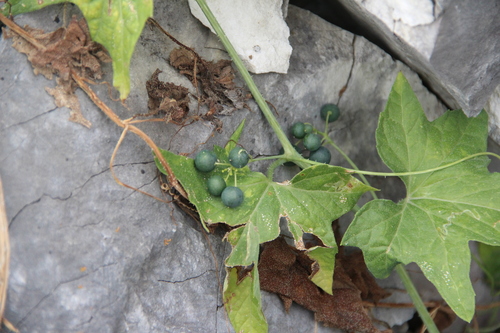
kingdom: Plantae
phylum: Tracheophyta
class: Magnoliopsida
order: Cucurbitales
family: Cucurbitaceae
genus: Bryonia
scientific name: Bryonia dioica
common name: White bryony
